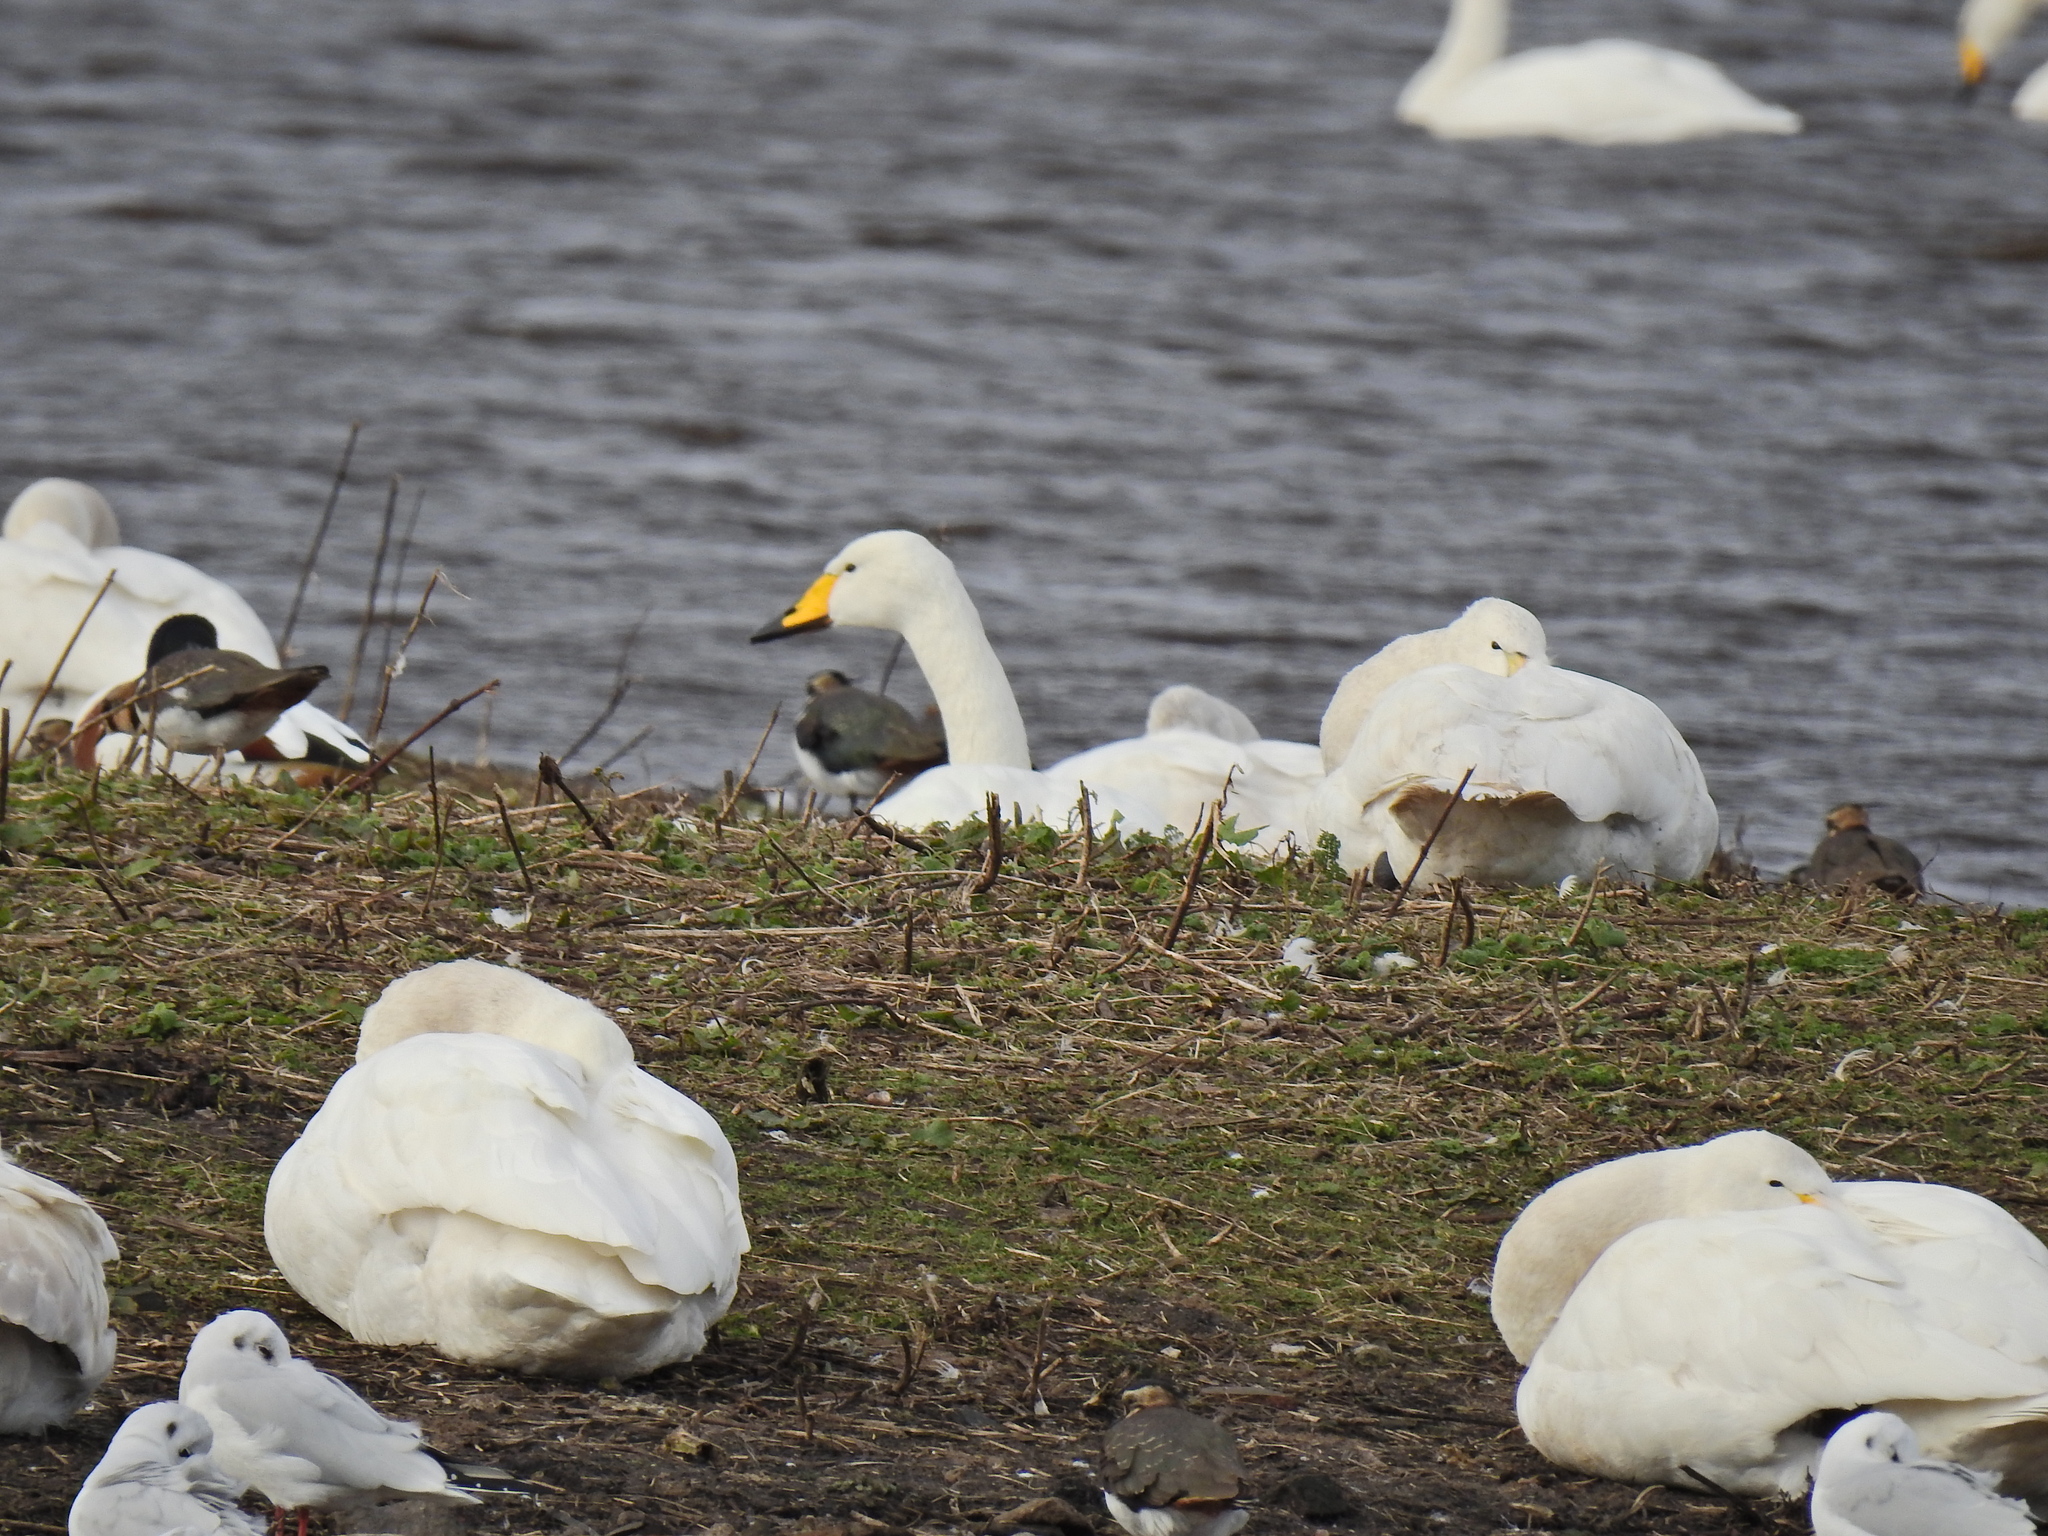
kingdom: Animalia
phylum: Chordata
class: Aves
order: Anseriformes
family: Anatidae
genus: Cygnus
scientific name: Cygnus cygnus
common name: Whooper swan
